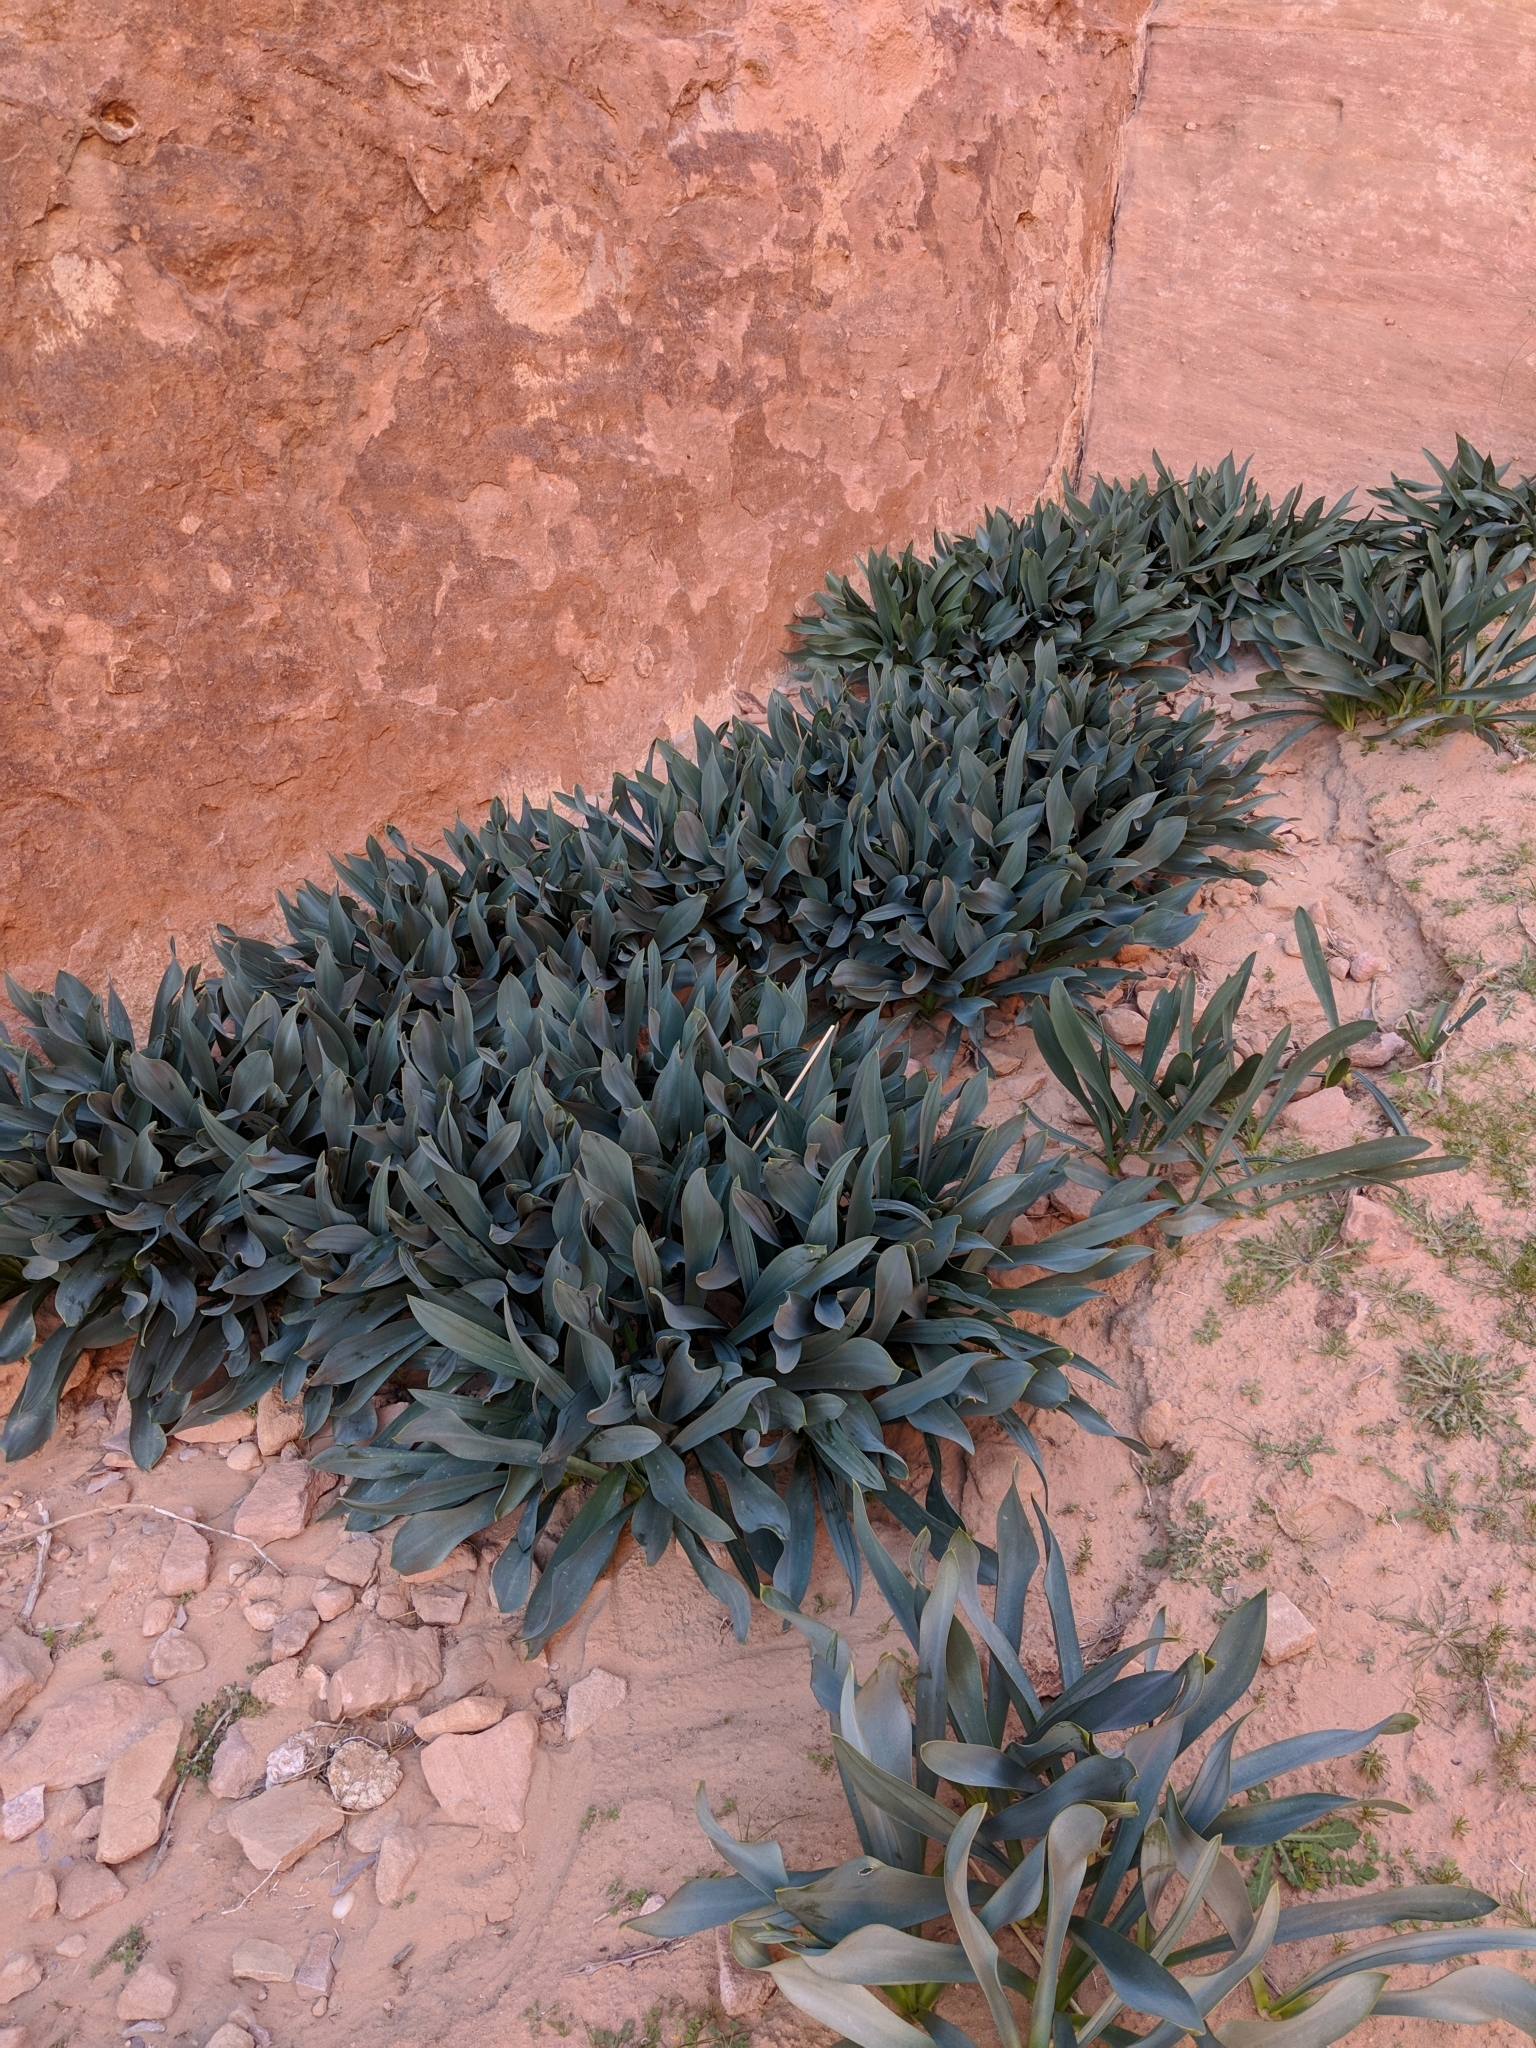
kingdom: Plantae
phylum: Tracheophyta
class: Liliopsida
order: Asparagales
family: Asparagaceae
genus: Drimia
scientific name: Drimia aphylla
